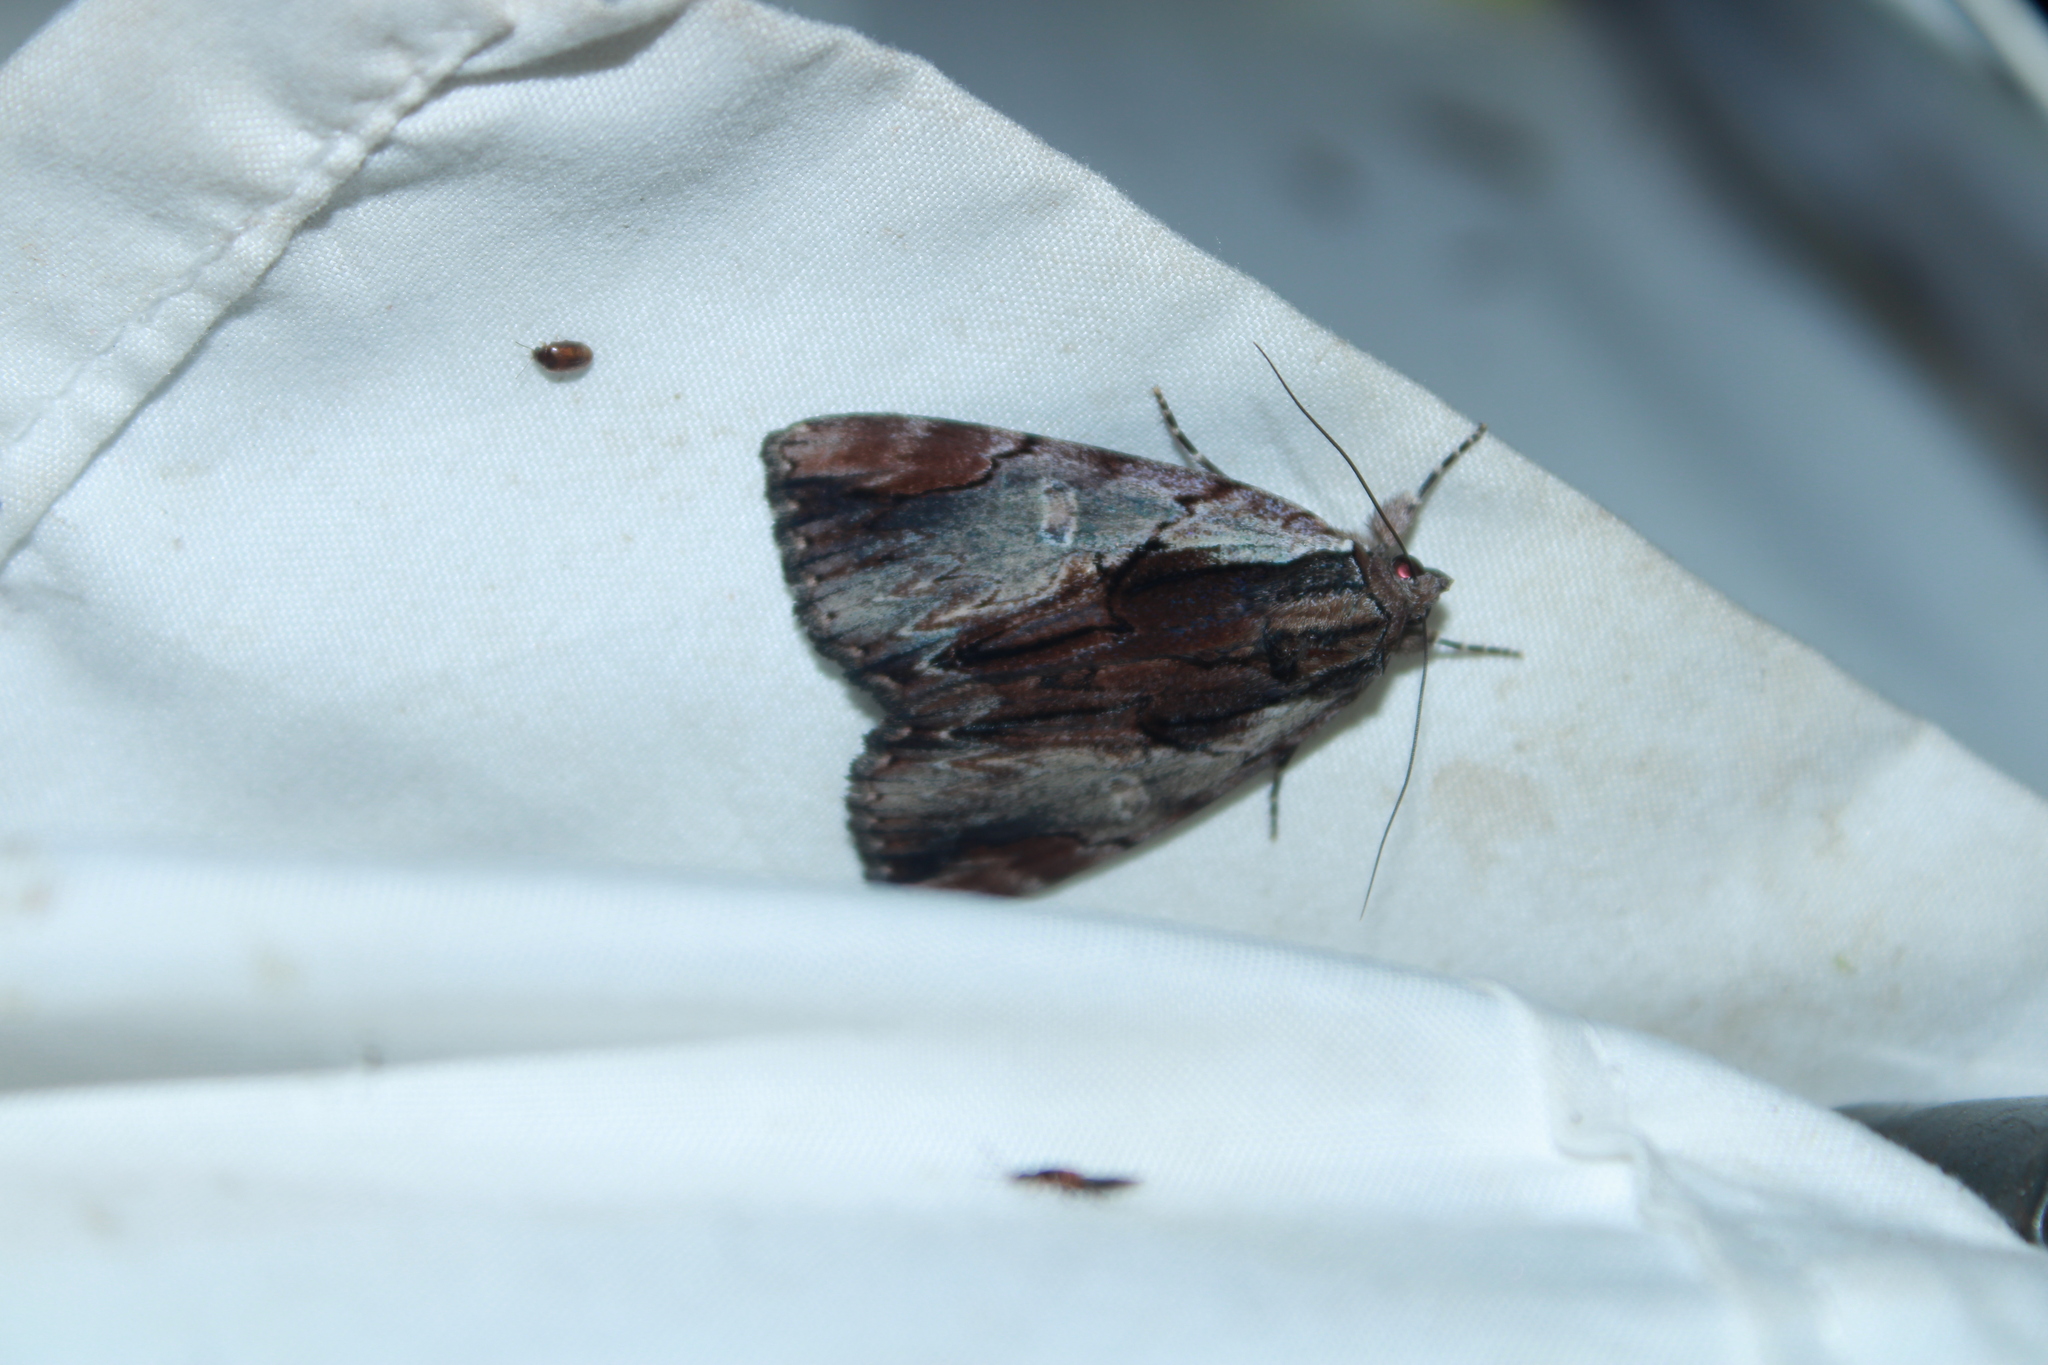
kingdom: Animalia
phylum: Arthropoda
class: Insecta
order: Lepidoptera
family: Erebidae
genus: Catocala
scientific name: Catocala ultronia
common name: Ultronia underwing
